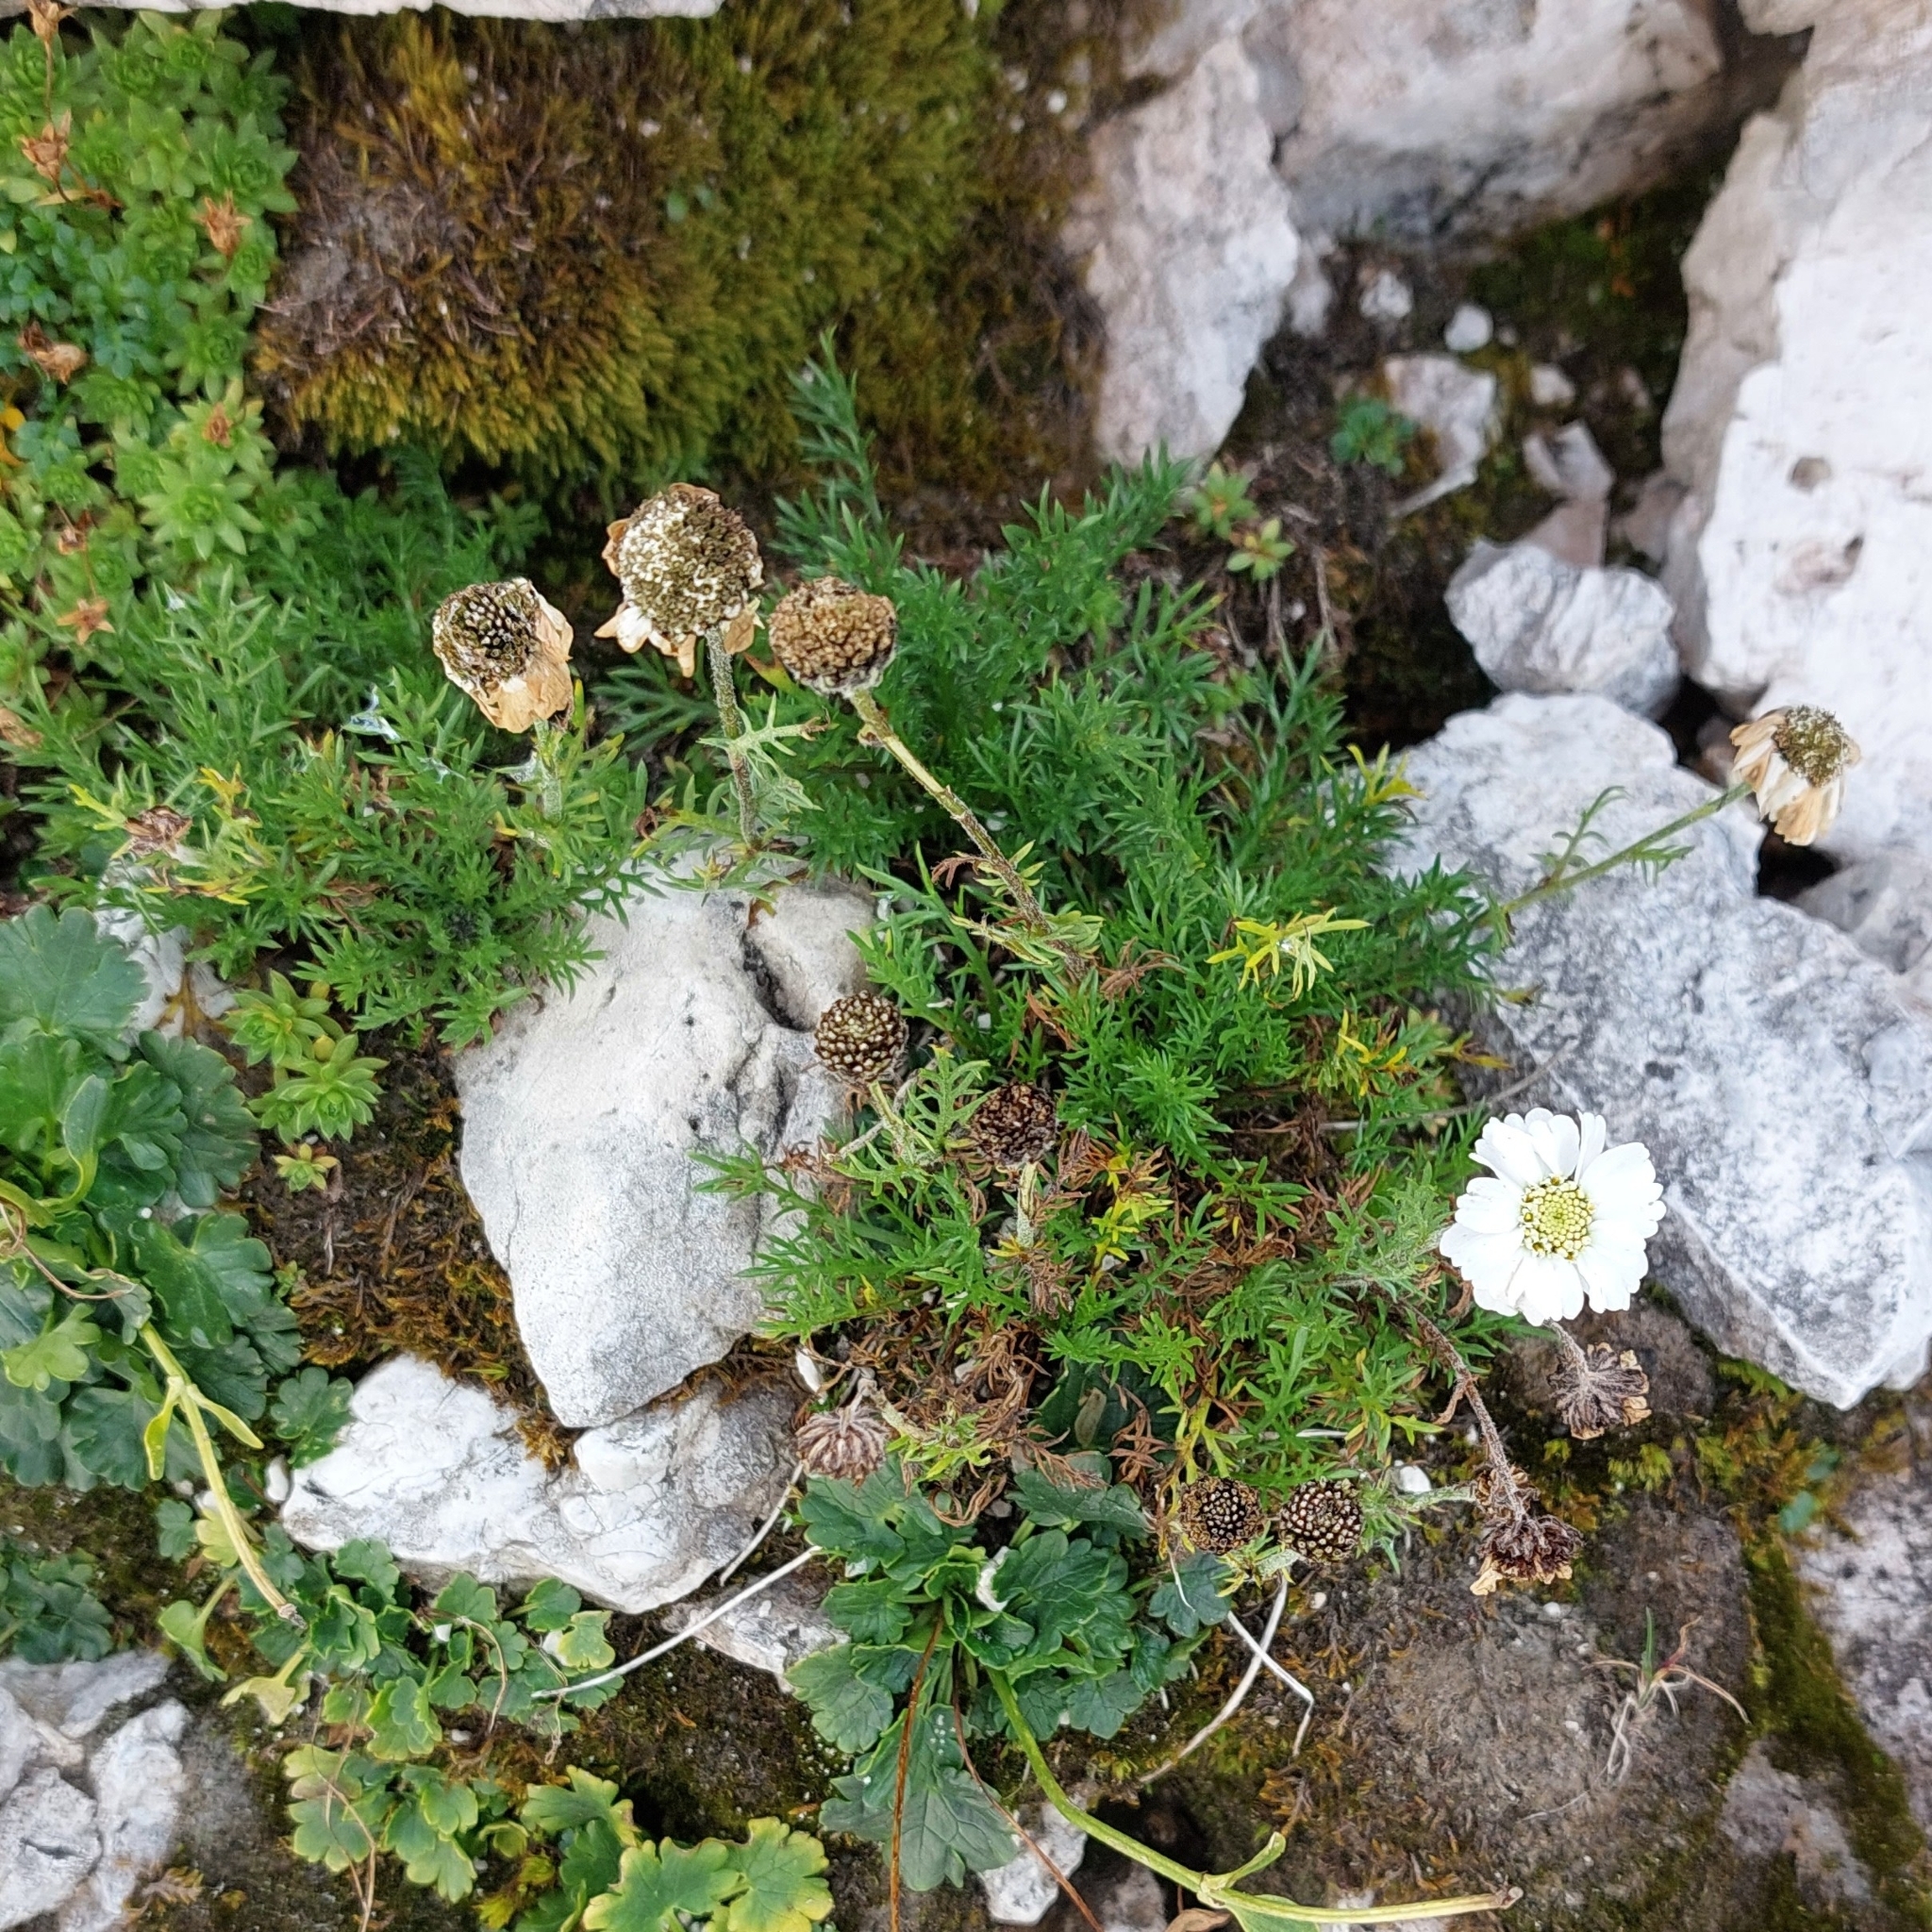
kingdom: Plantae
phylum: Tracheophyta
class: Magnoliopsida
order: Asterales
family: Asteraceae
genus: Achillea
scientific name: Achillea oxyloba
